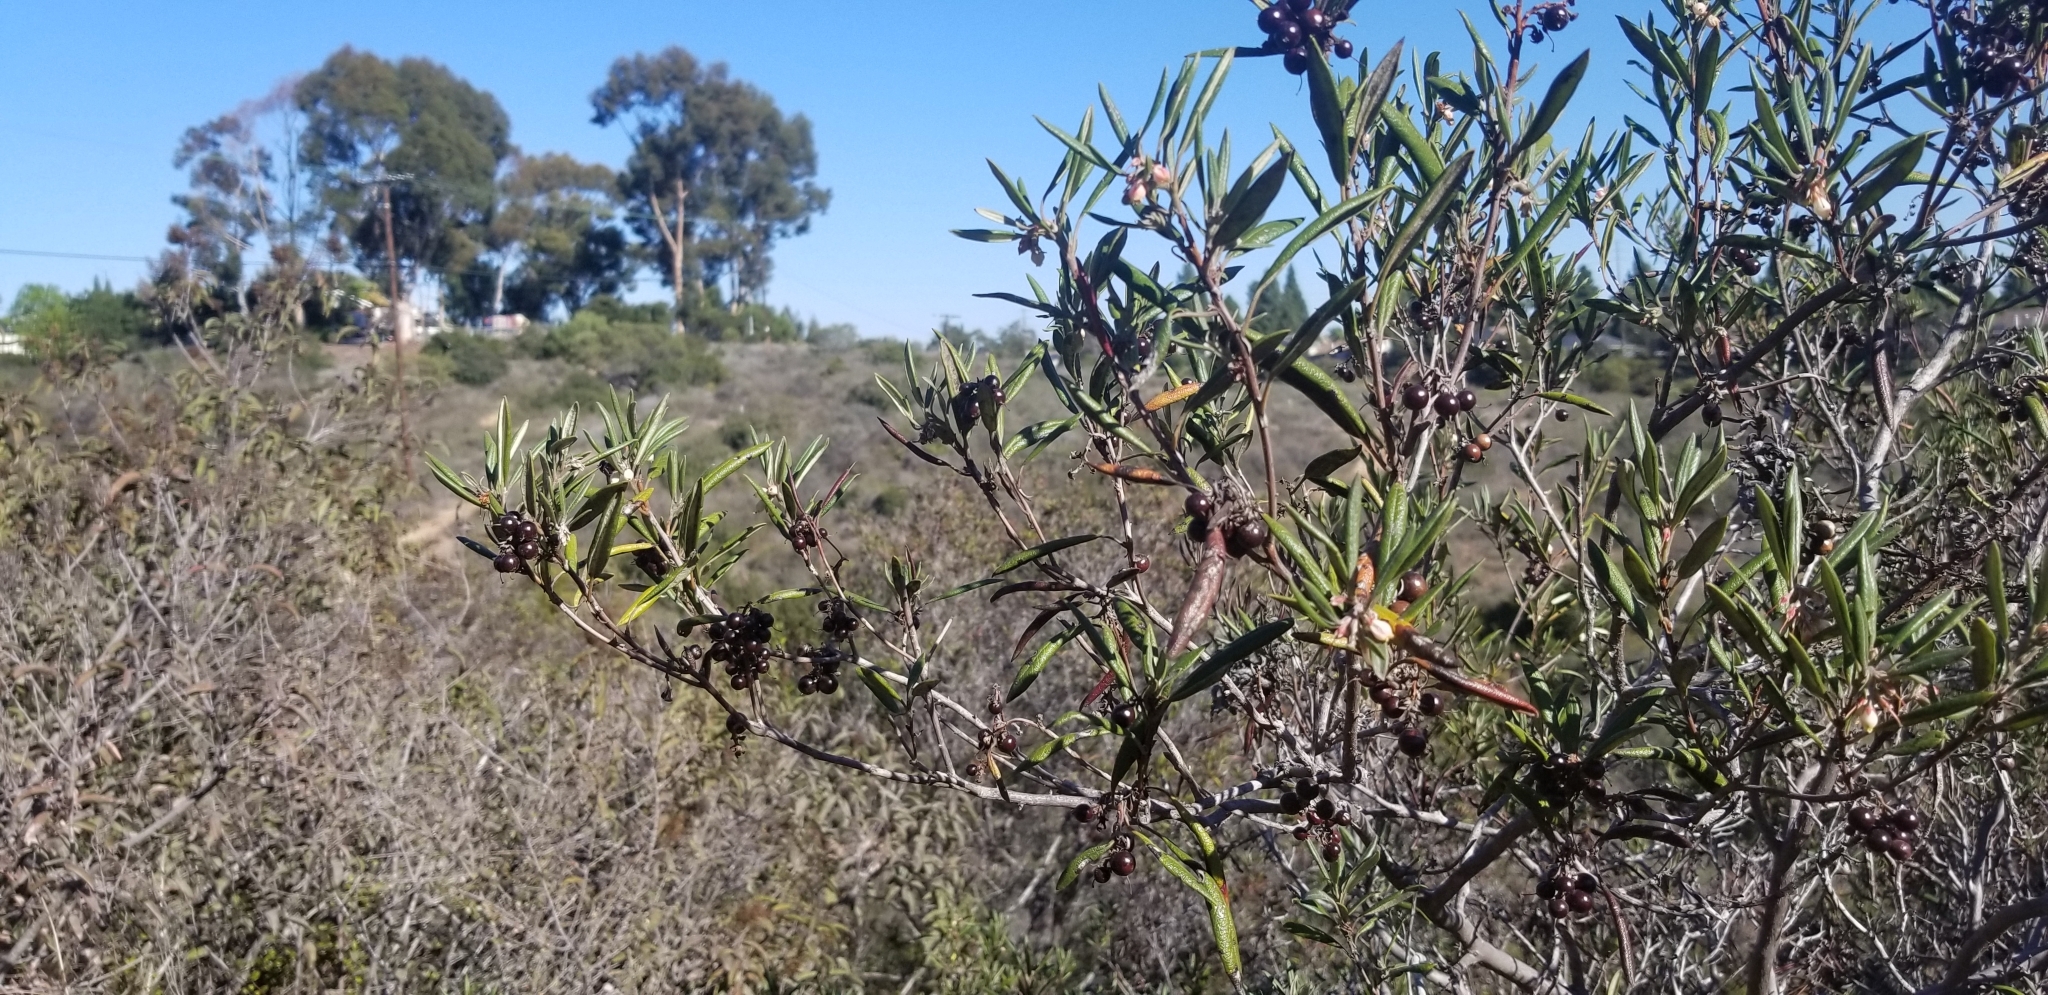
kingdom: Plantae
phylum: Tracheophyta
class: Magnoliopsida
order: Ericales
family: Ericaceae
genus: Arctostaphylos
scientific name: Arctostaphylos bicolor
